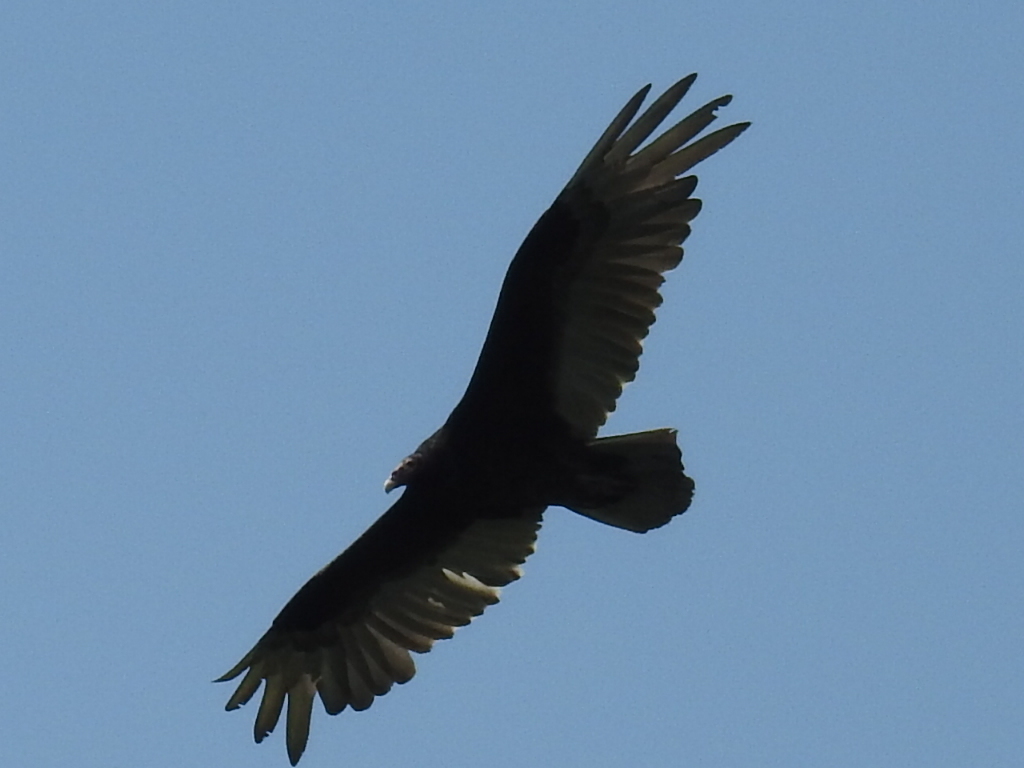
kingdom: Animalia
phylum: Chordata
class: Aves
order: Accipitriformes
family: Cathartidae
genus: Cathartes
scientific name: Cathartes aura
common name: Turkey vulture
